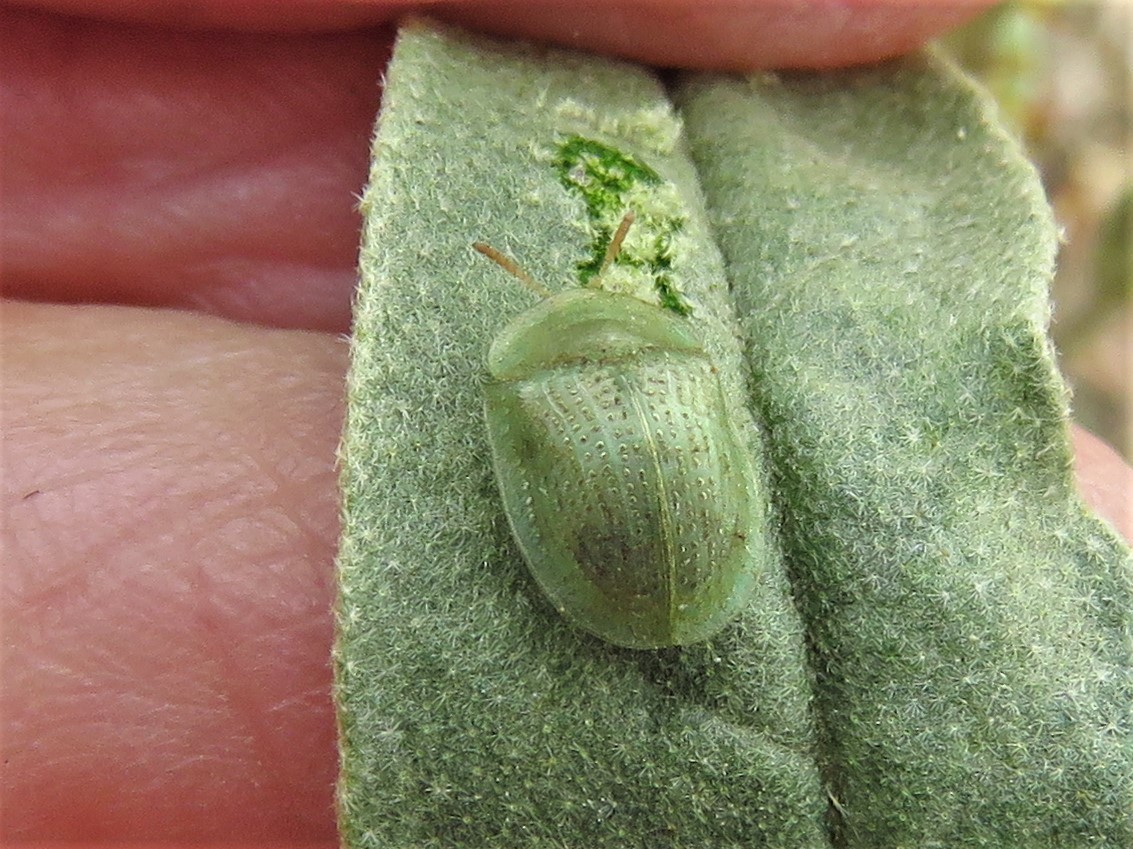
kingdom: Animalia
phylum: Arthropoda
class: Insecta
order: Coleoptera
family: Chrysomelidae
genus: Gratiana
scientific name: Gratiana pallidula
